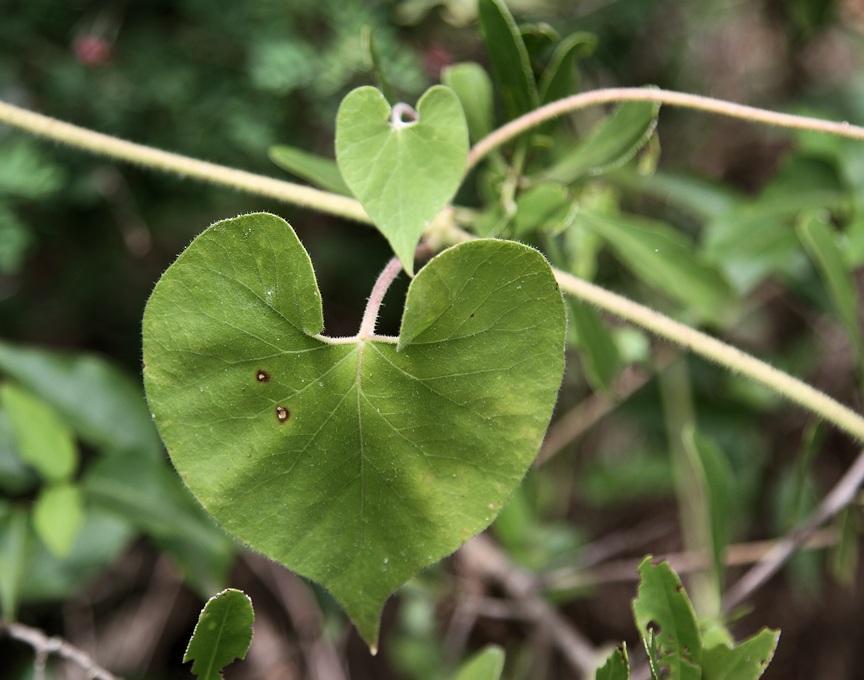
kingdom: Plantae
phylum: Tracheophyta
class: Magnoliopsida
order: Gentianales
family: Apocynaceae
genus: Pergularia
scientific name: Pergularia daemia
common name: Trellis-vine
